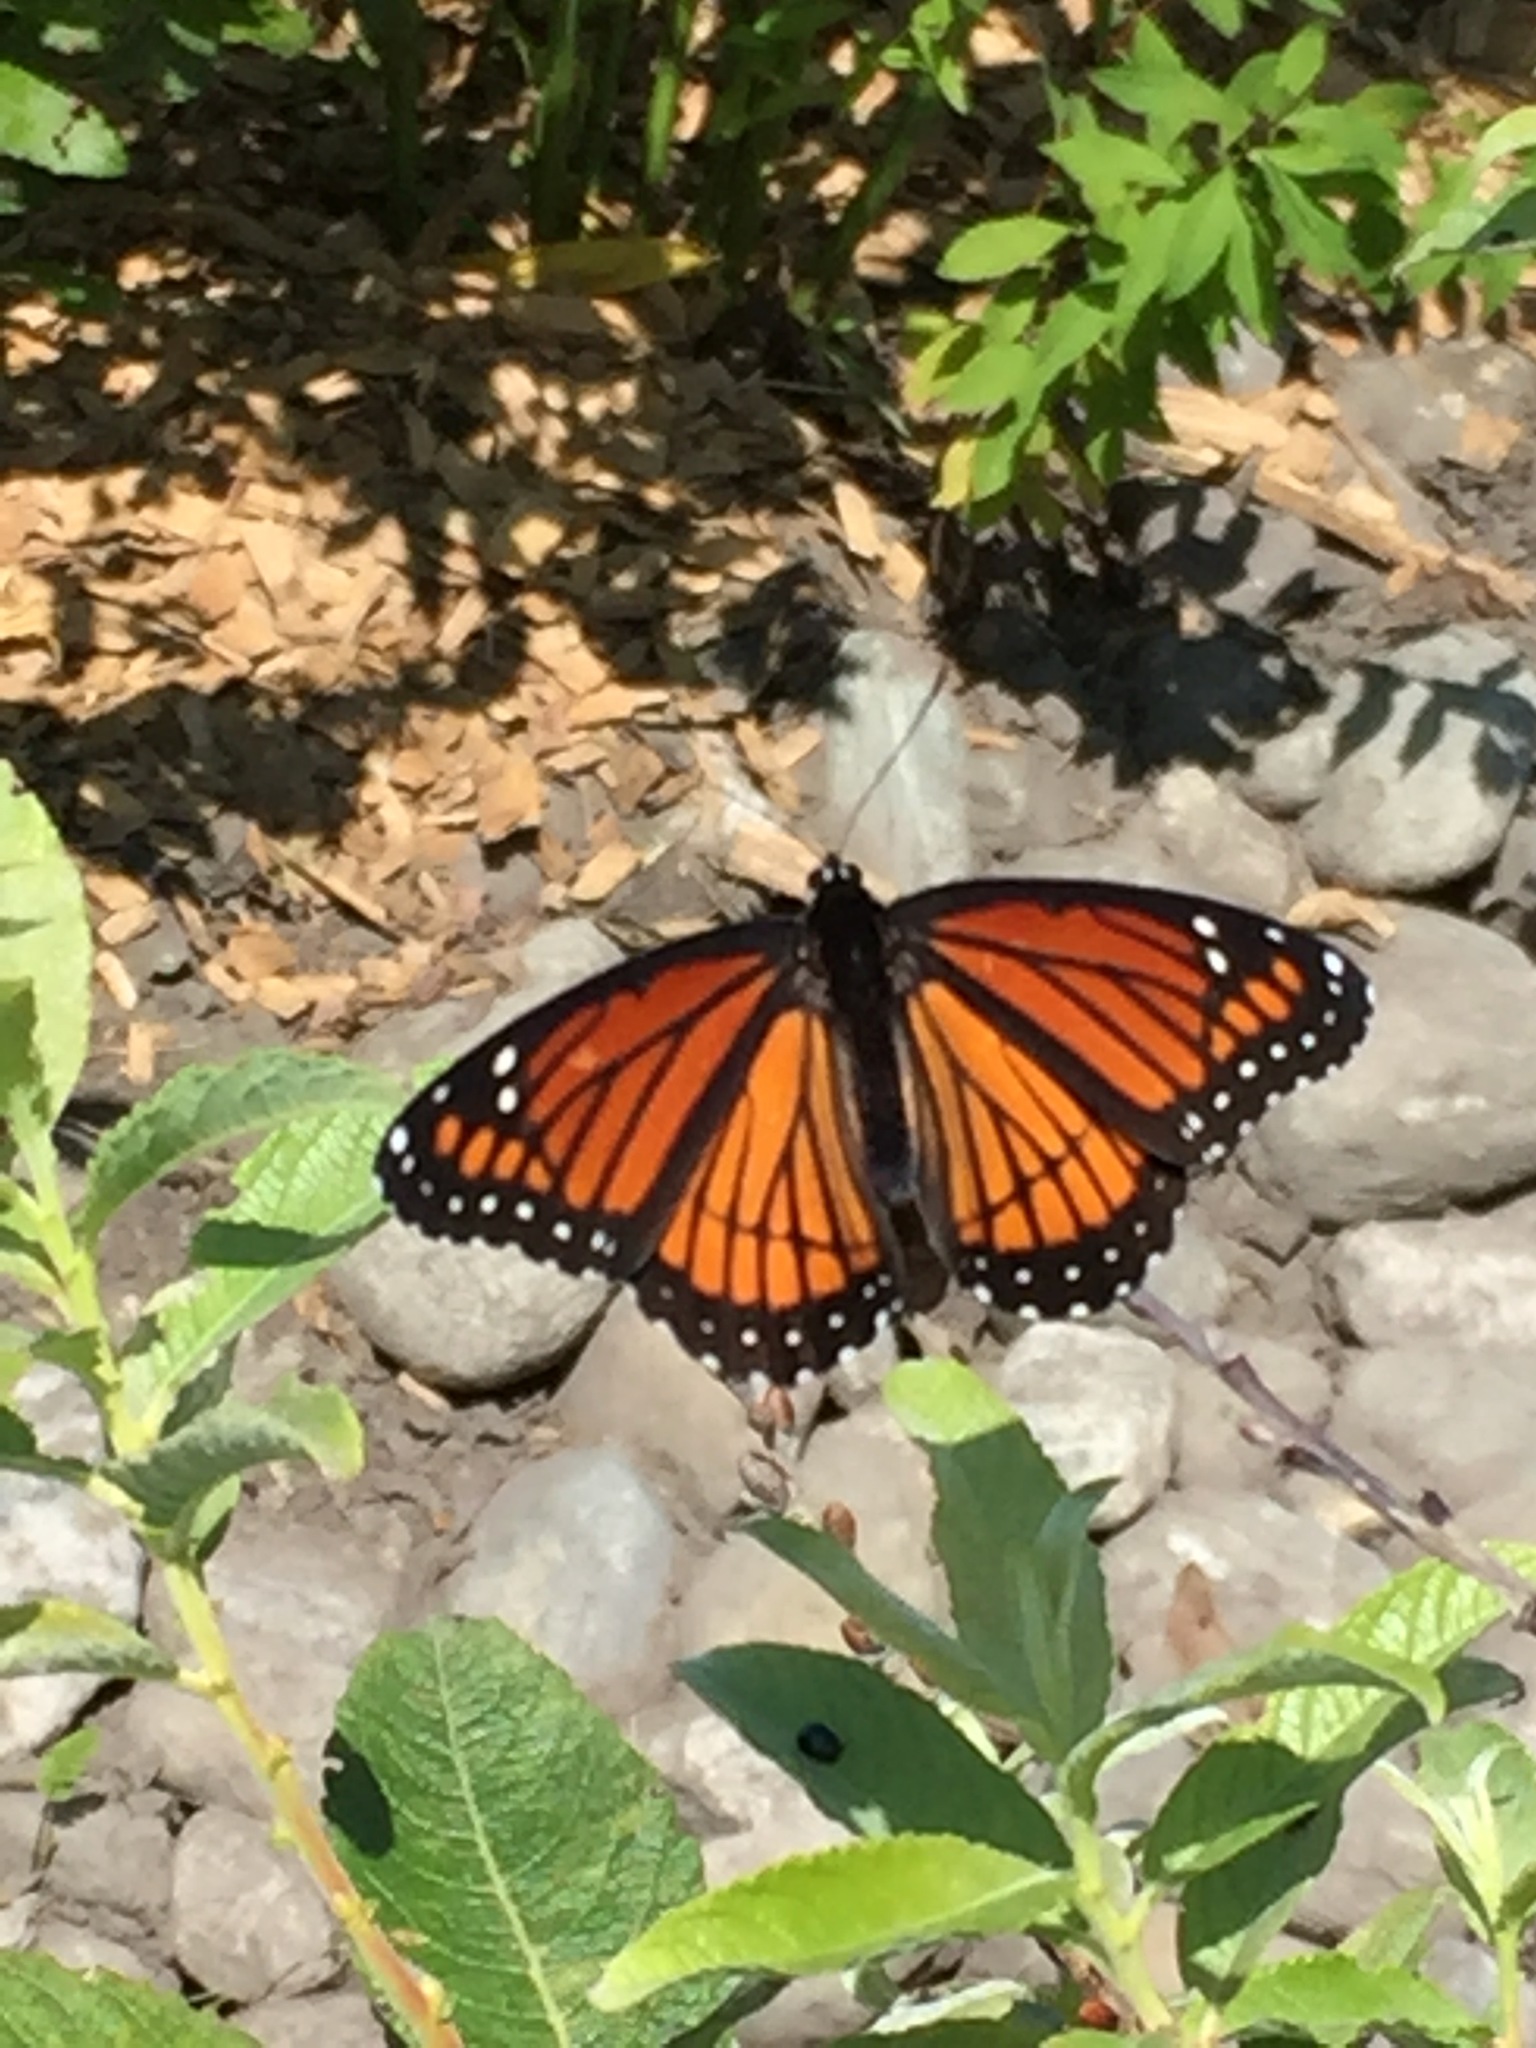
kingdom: Animalia
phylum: Arthropoda
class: Insecta
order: Lepidoptera
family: Nymphalidae
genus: Limenitis
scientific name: Limenitis archippus
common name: Viceroy
